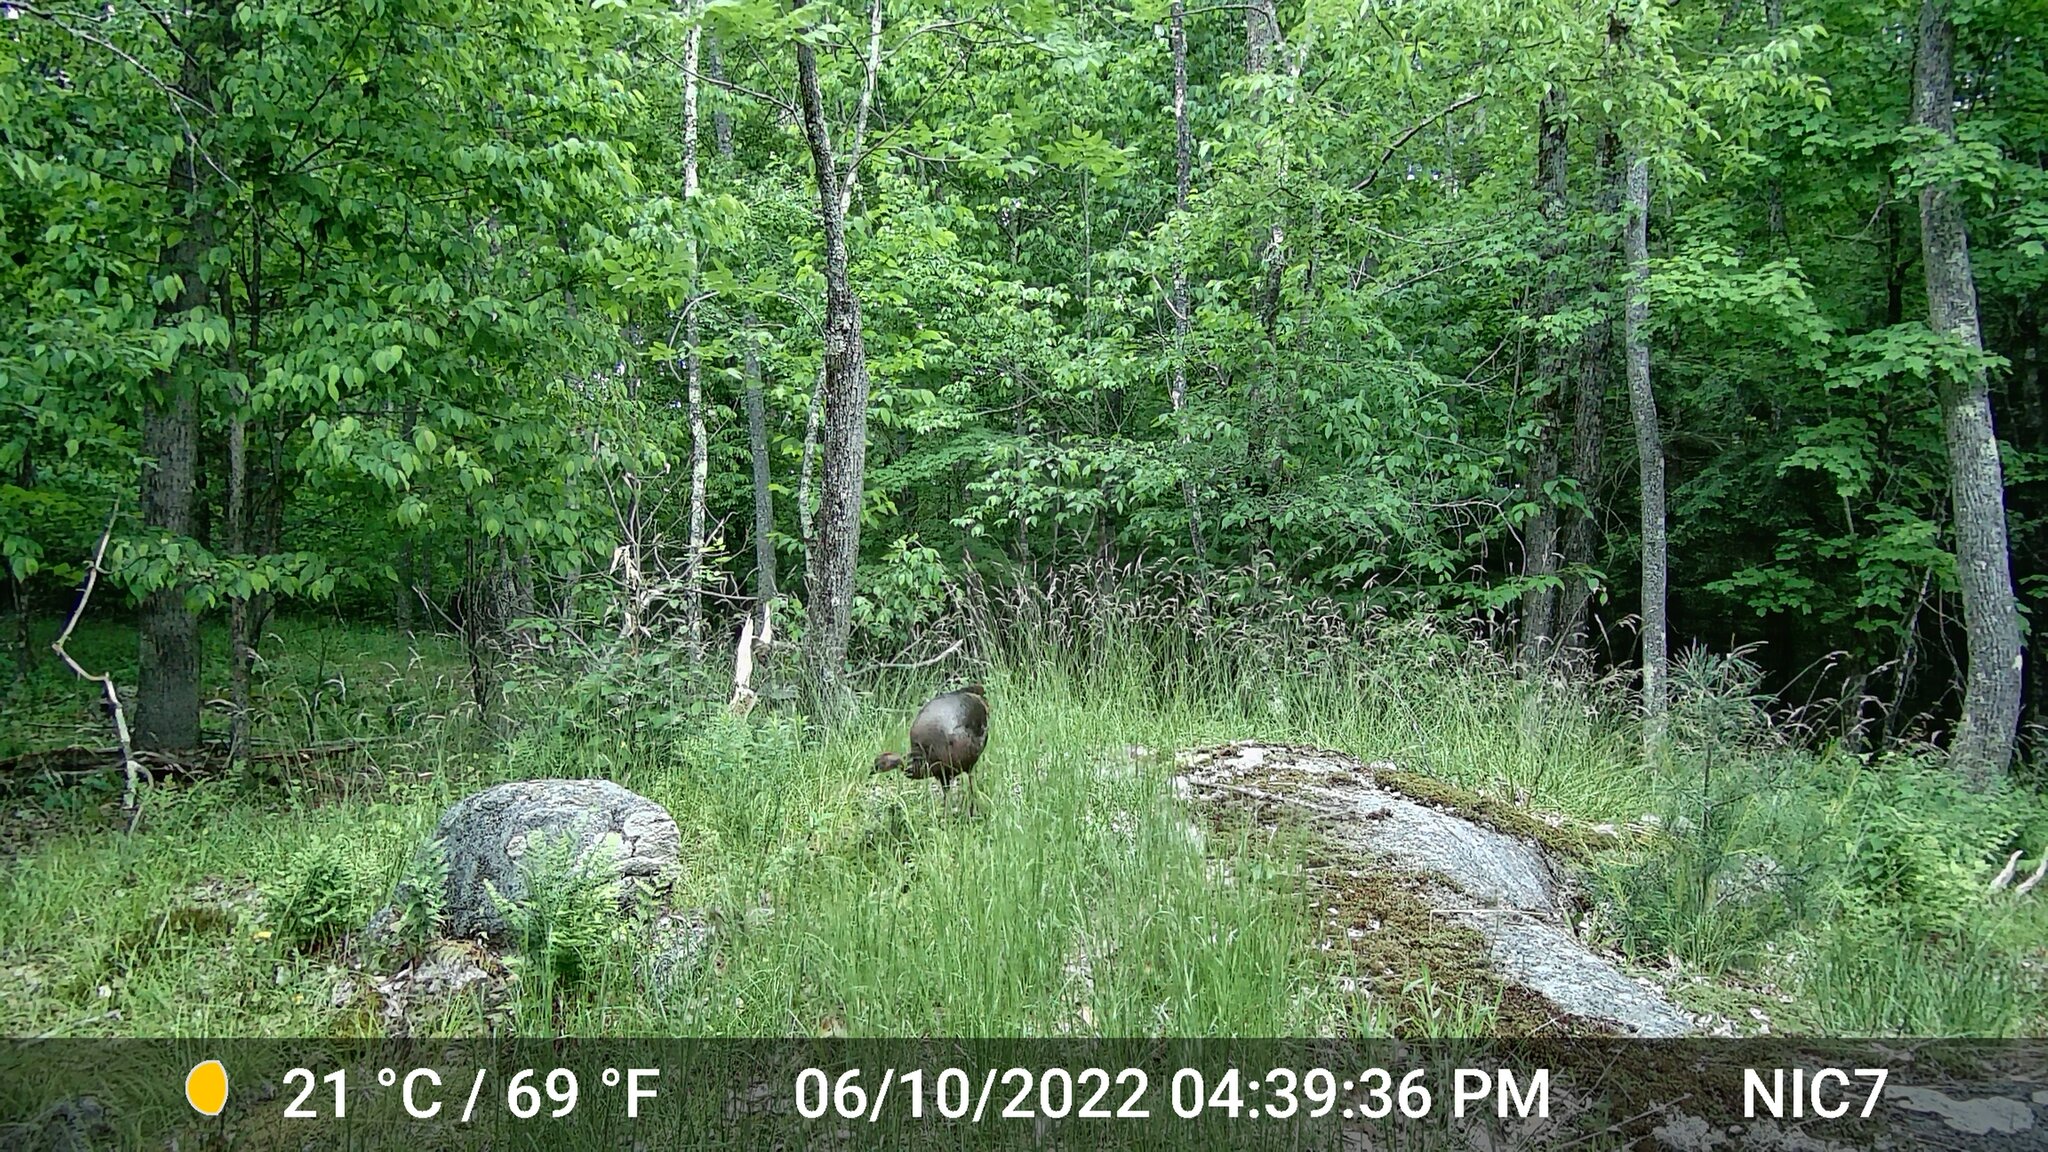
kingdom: Animalia
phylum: Chordata
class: Aves
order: Galliformes
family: Phasianidae
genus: Meleagris
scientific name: Meleagris gallopavo
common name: Wild turkey
